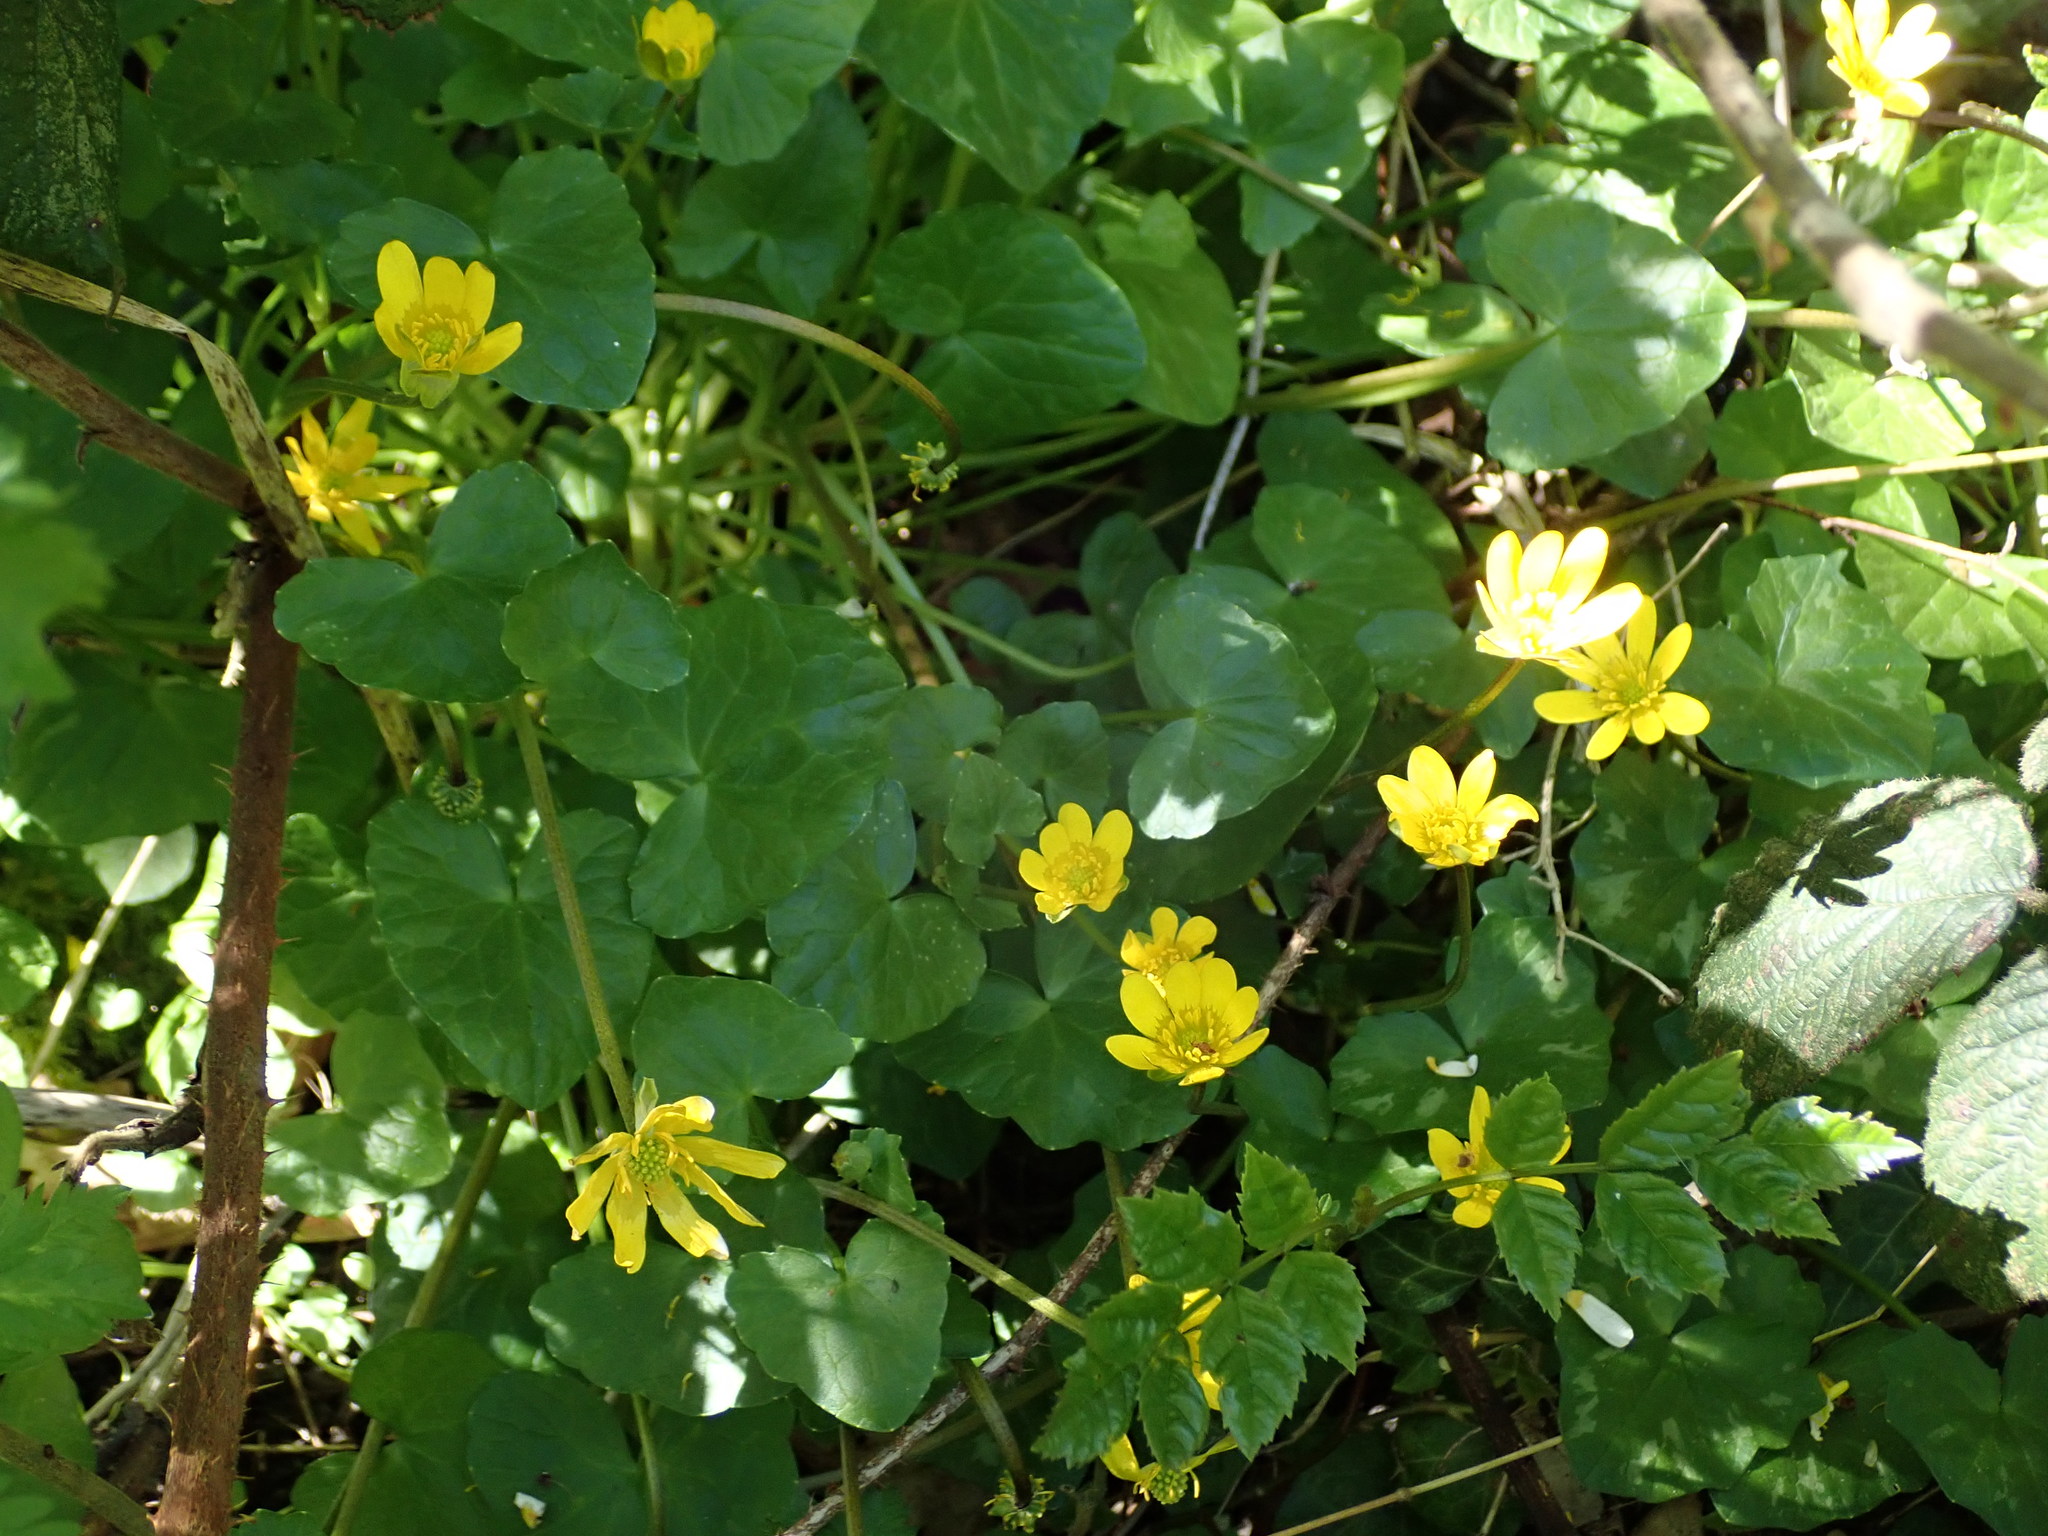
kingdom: Plantae
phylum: Tracheophyta
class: Magnoliopsida
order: Ranunculales
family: Ranunculaceae
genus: Ficaria
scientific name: Ficaria verna
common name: Lesser celandine
